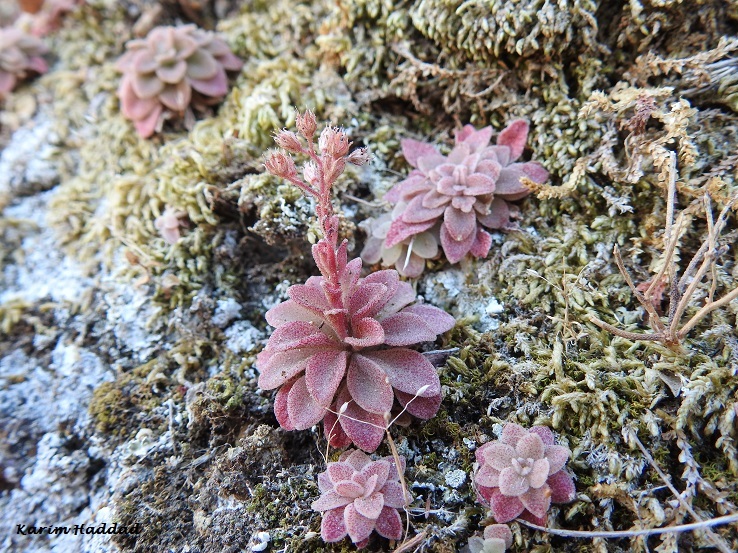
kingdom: Plantae
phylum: Tracheophyta
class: Magnoliopsida
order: Saxifragales
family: Crassulaceae
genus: Sedum
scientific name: Sedum cepaea
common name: Pink stonecrop
